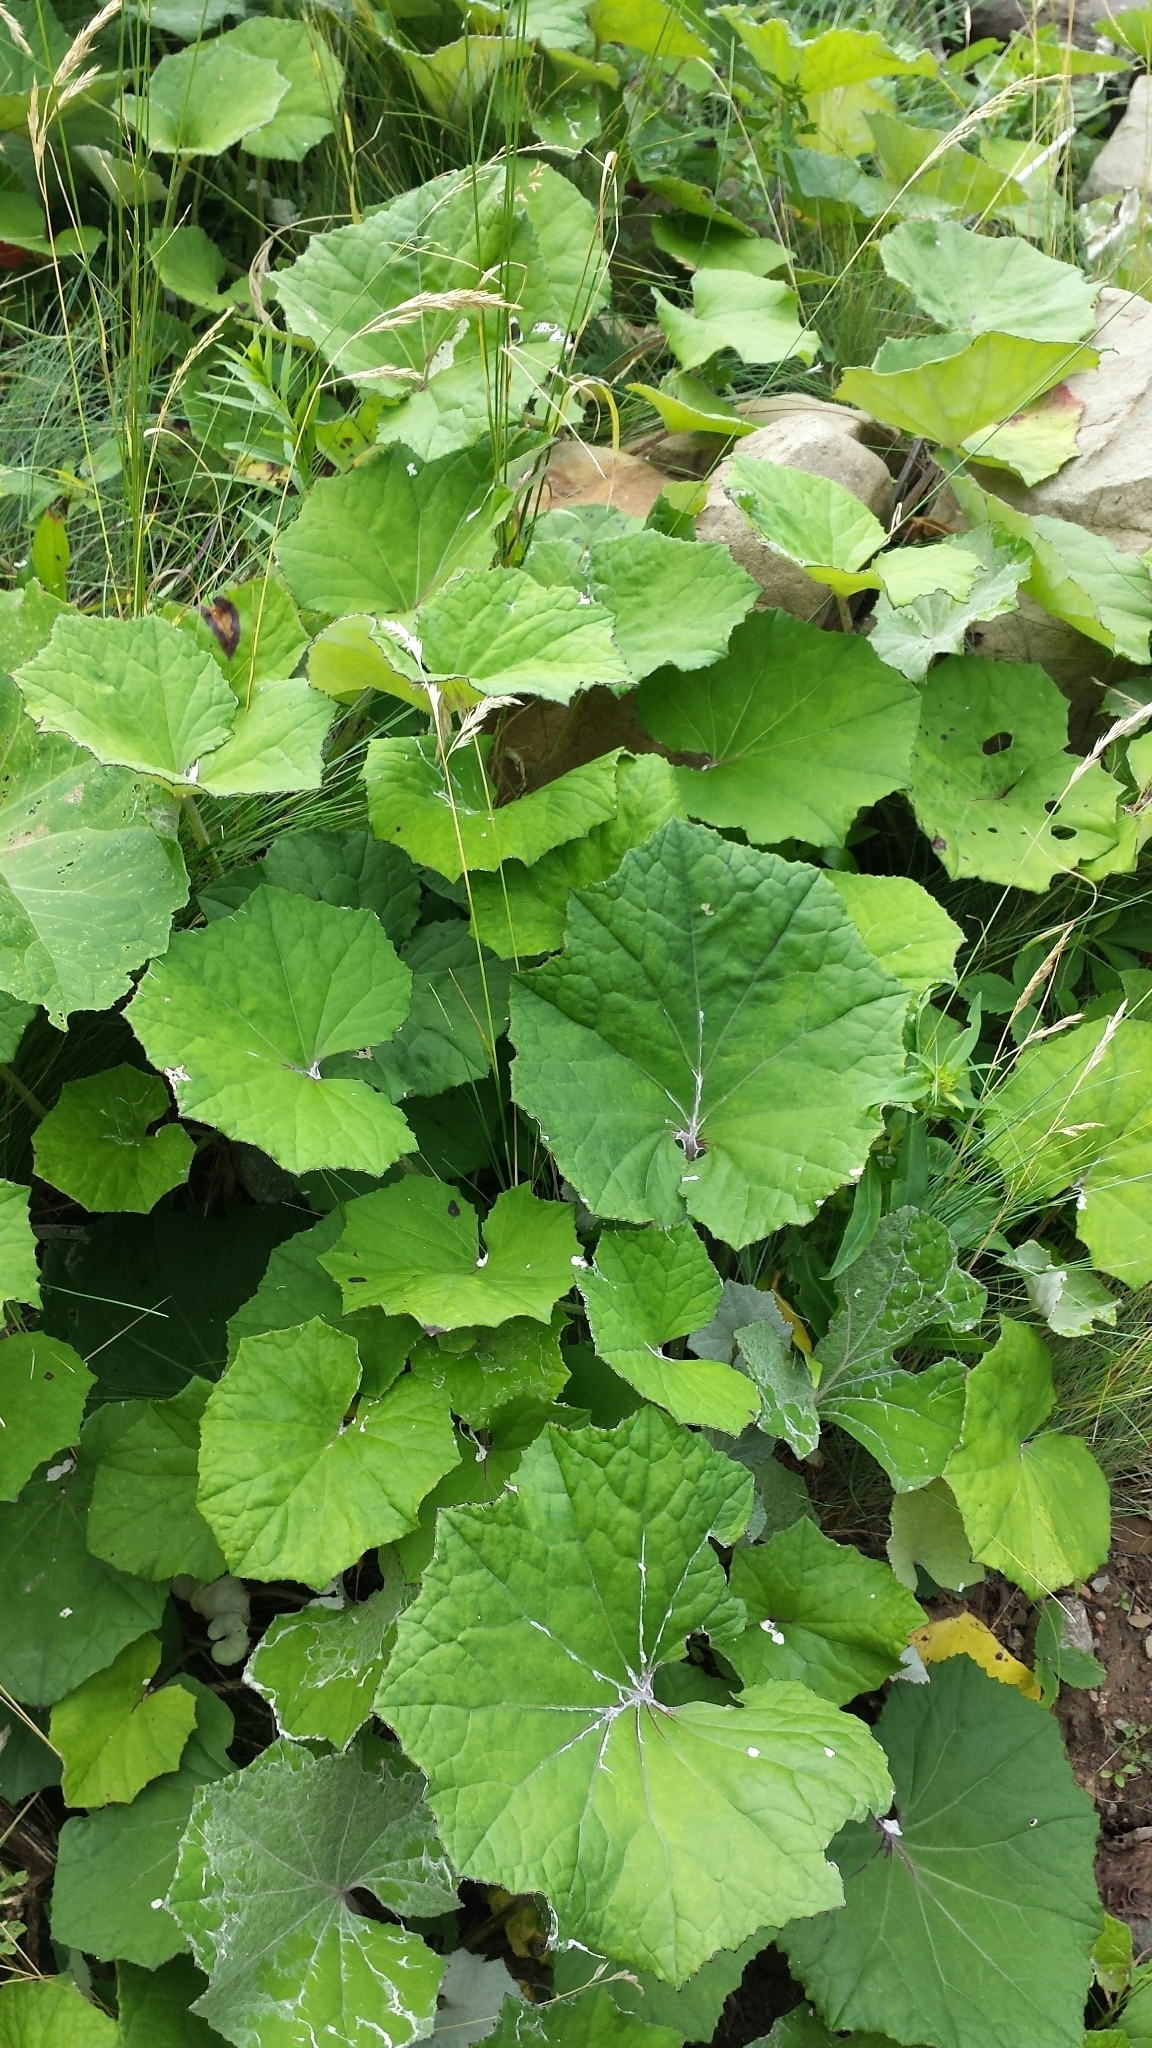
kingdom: Plantae
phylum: Tracheophyta
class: Magnoliopsida
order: Asterales
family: Asteraceae
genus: Tussilago
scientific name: Tussilago farfara
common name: Coltsfoot
